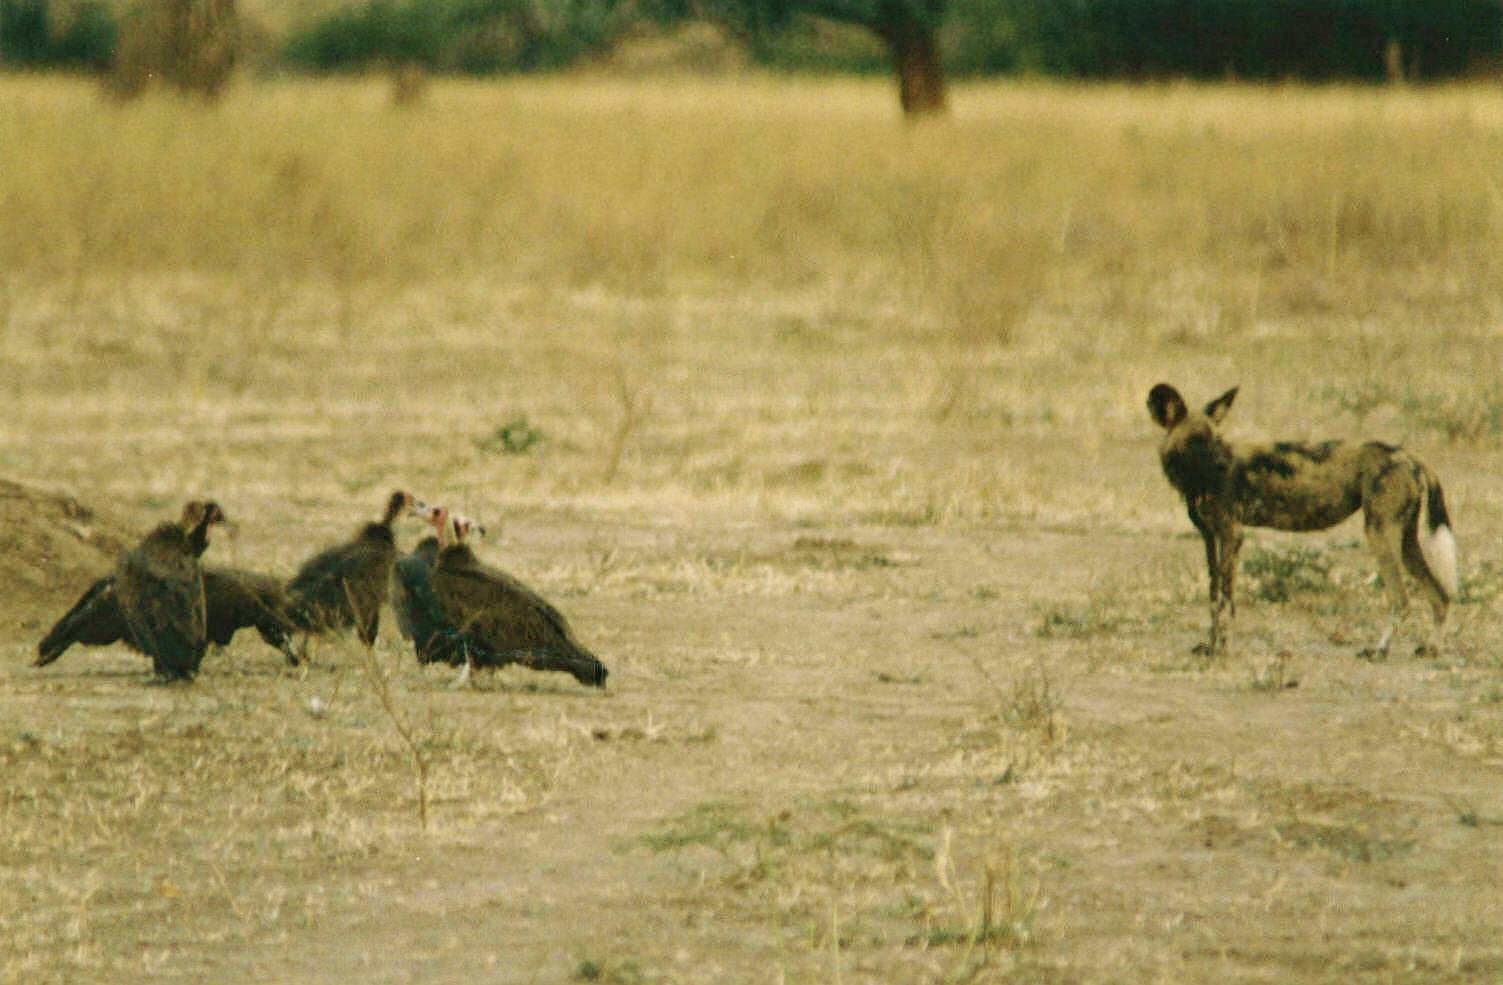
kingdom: Animalia
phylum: Chordata
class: Aves
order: Accipitriformes
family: Accipitridae
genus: Necrosyrtes
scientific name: Necrosyrtes monachus
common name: Hooded vulture
